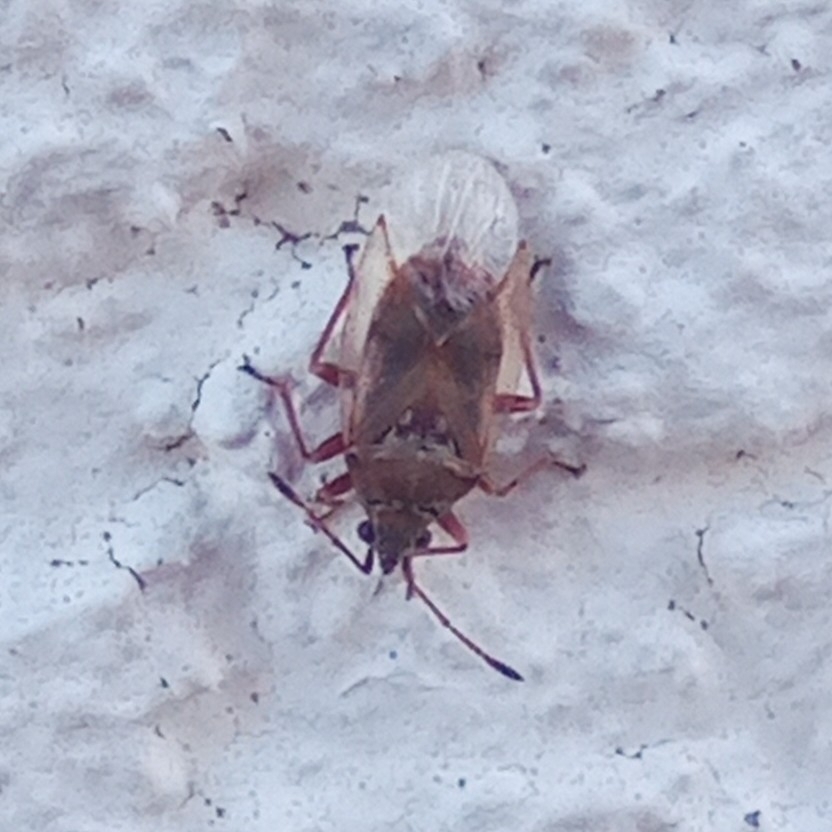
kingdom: Animalia
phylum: Arthropoda
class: Insecta
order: Hemiptera
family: Lygaeidae
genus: Kleidocerys
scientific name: Kleidocerys resedae
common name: Birch catkin bug
